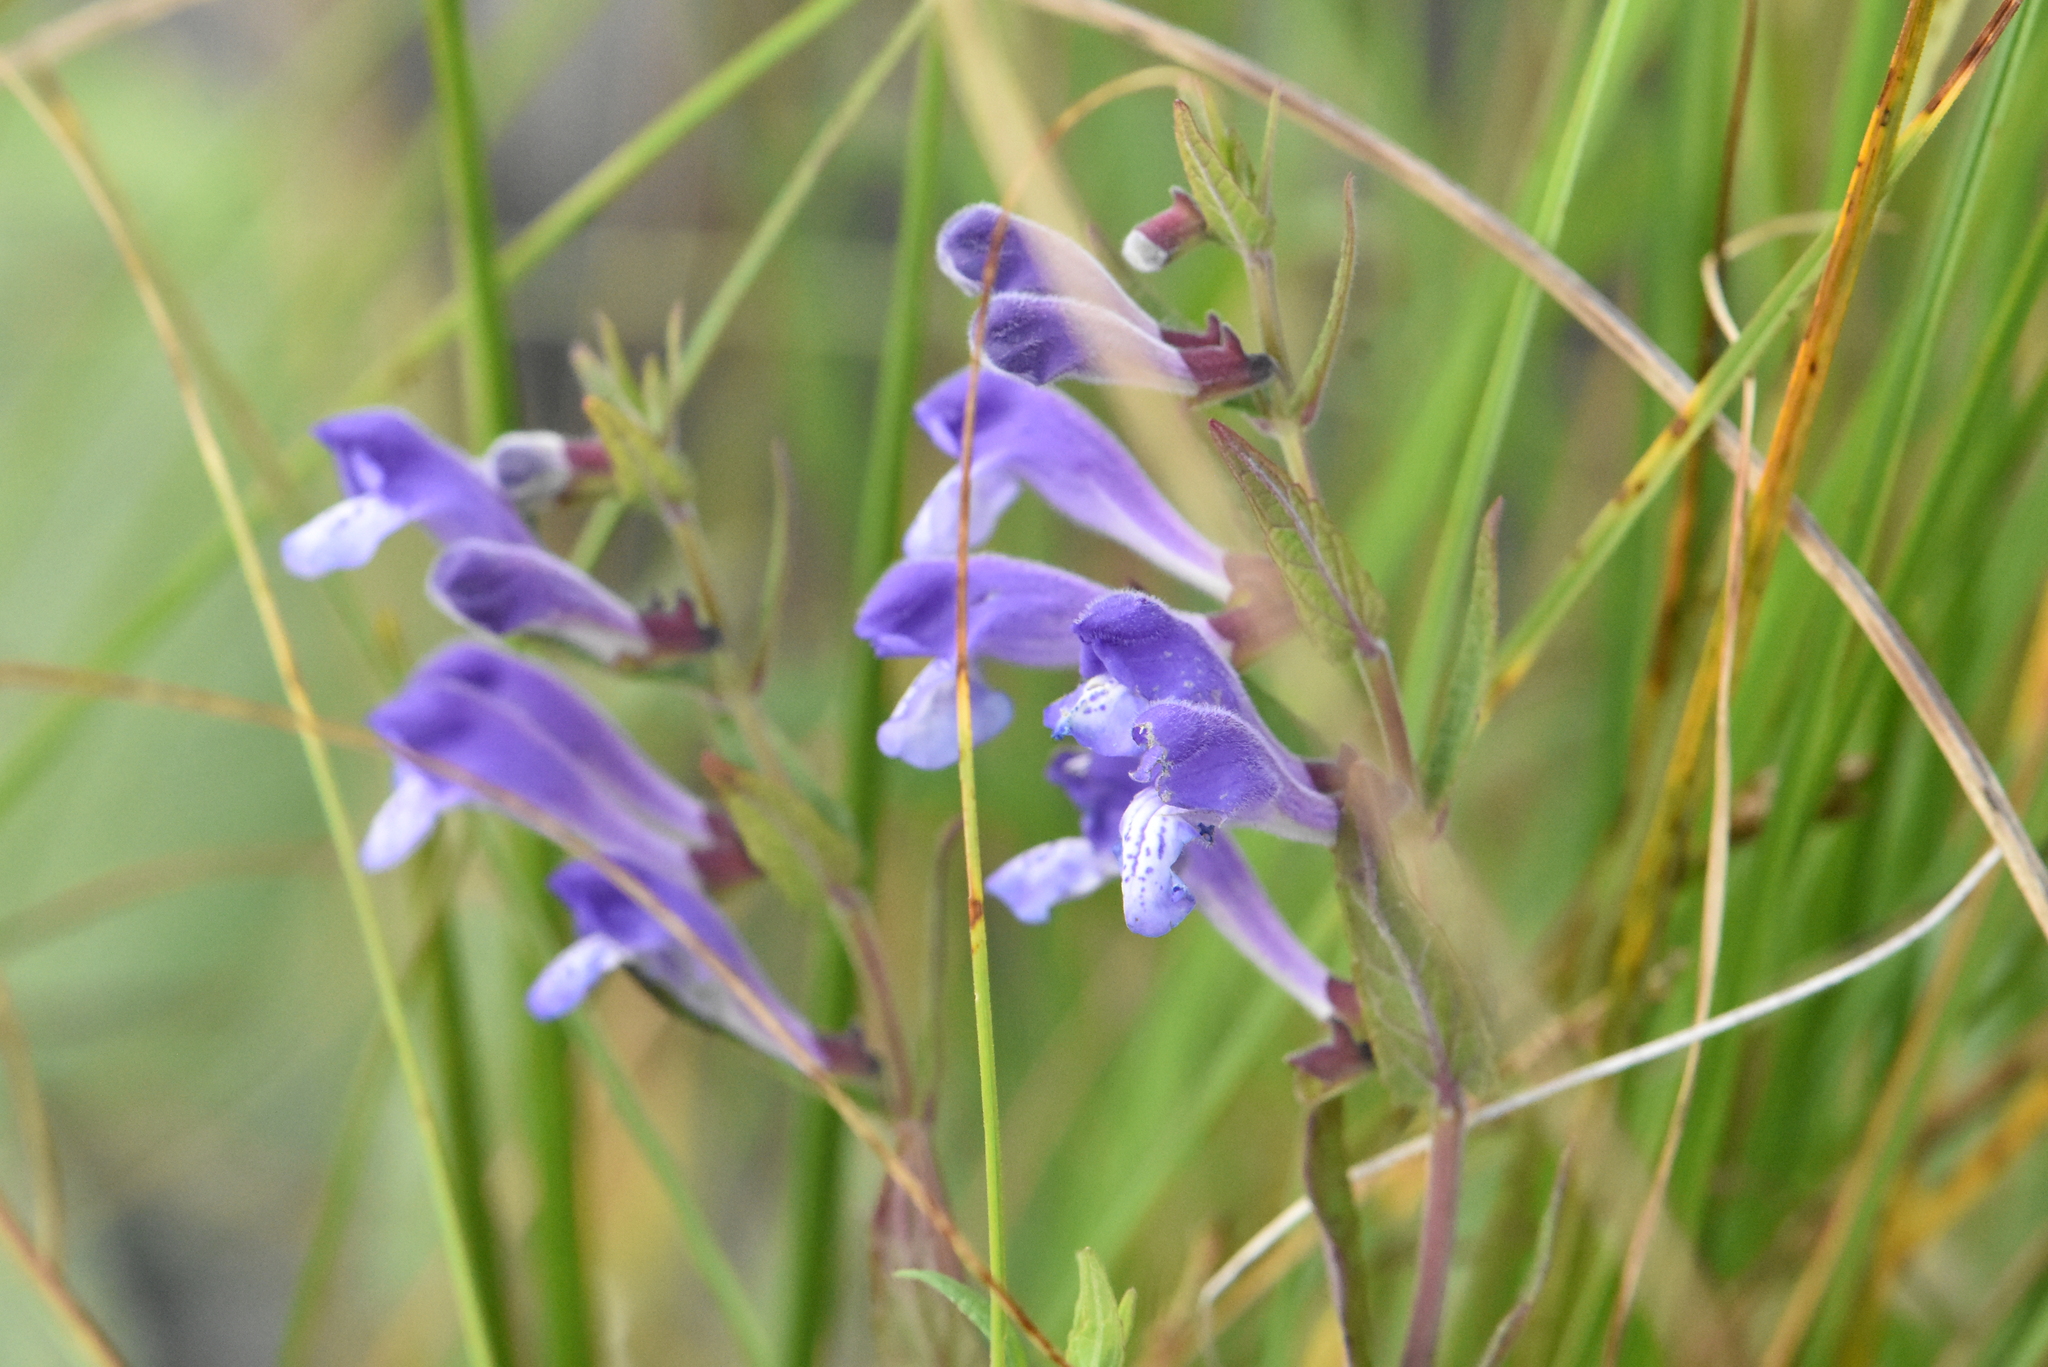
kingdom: Plantae
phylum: Tracheophyta
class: Magnoliopsida
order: Lamiales
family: Lamiaceae
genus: Scutellaria
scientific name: Scutellaria galericulata
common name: Skullcap
